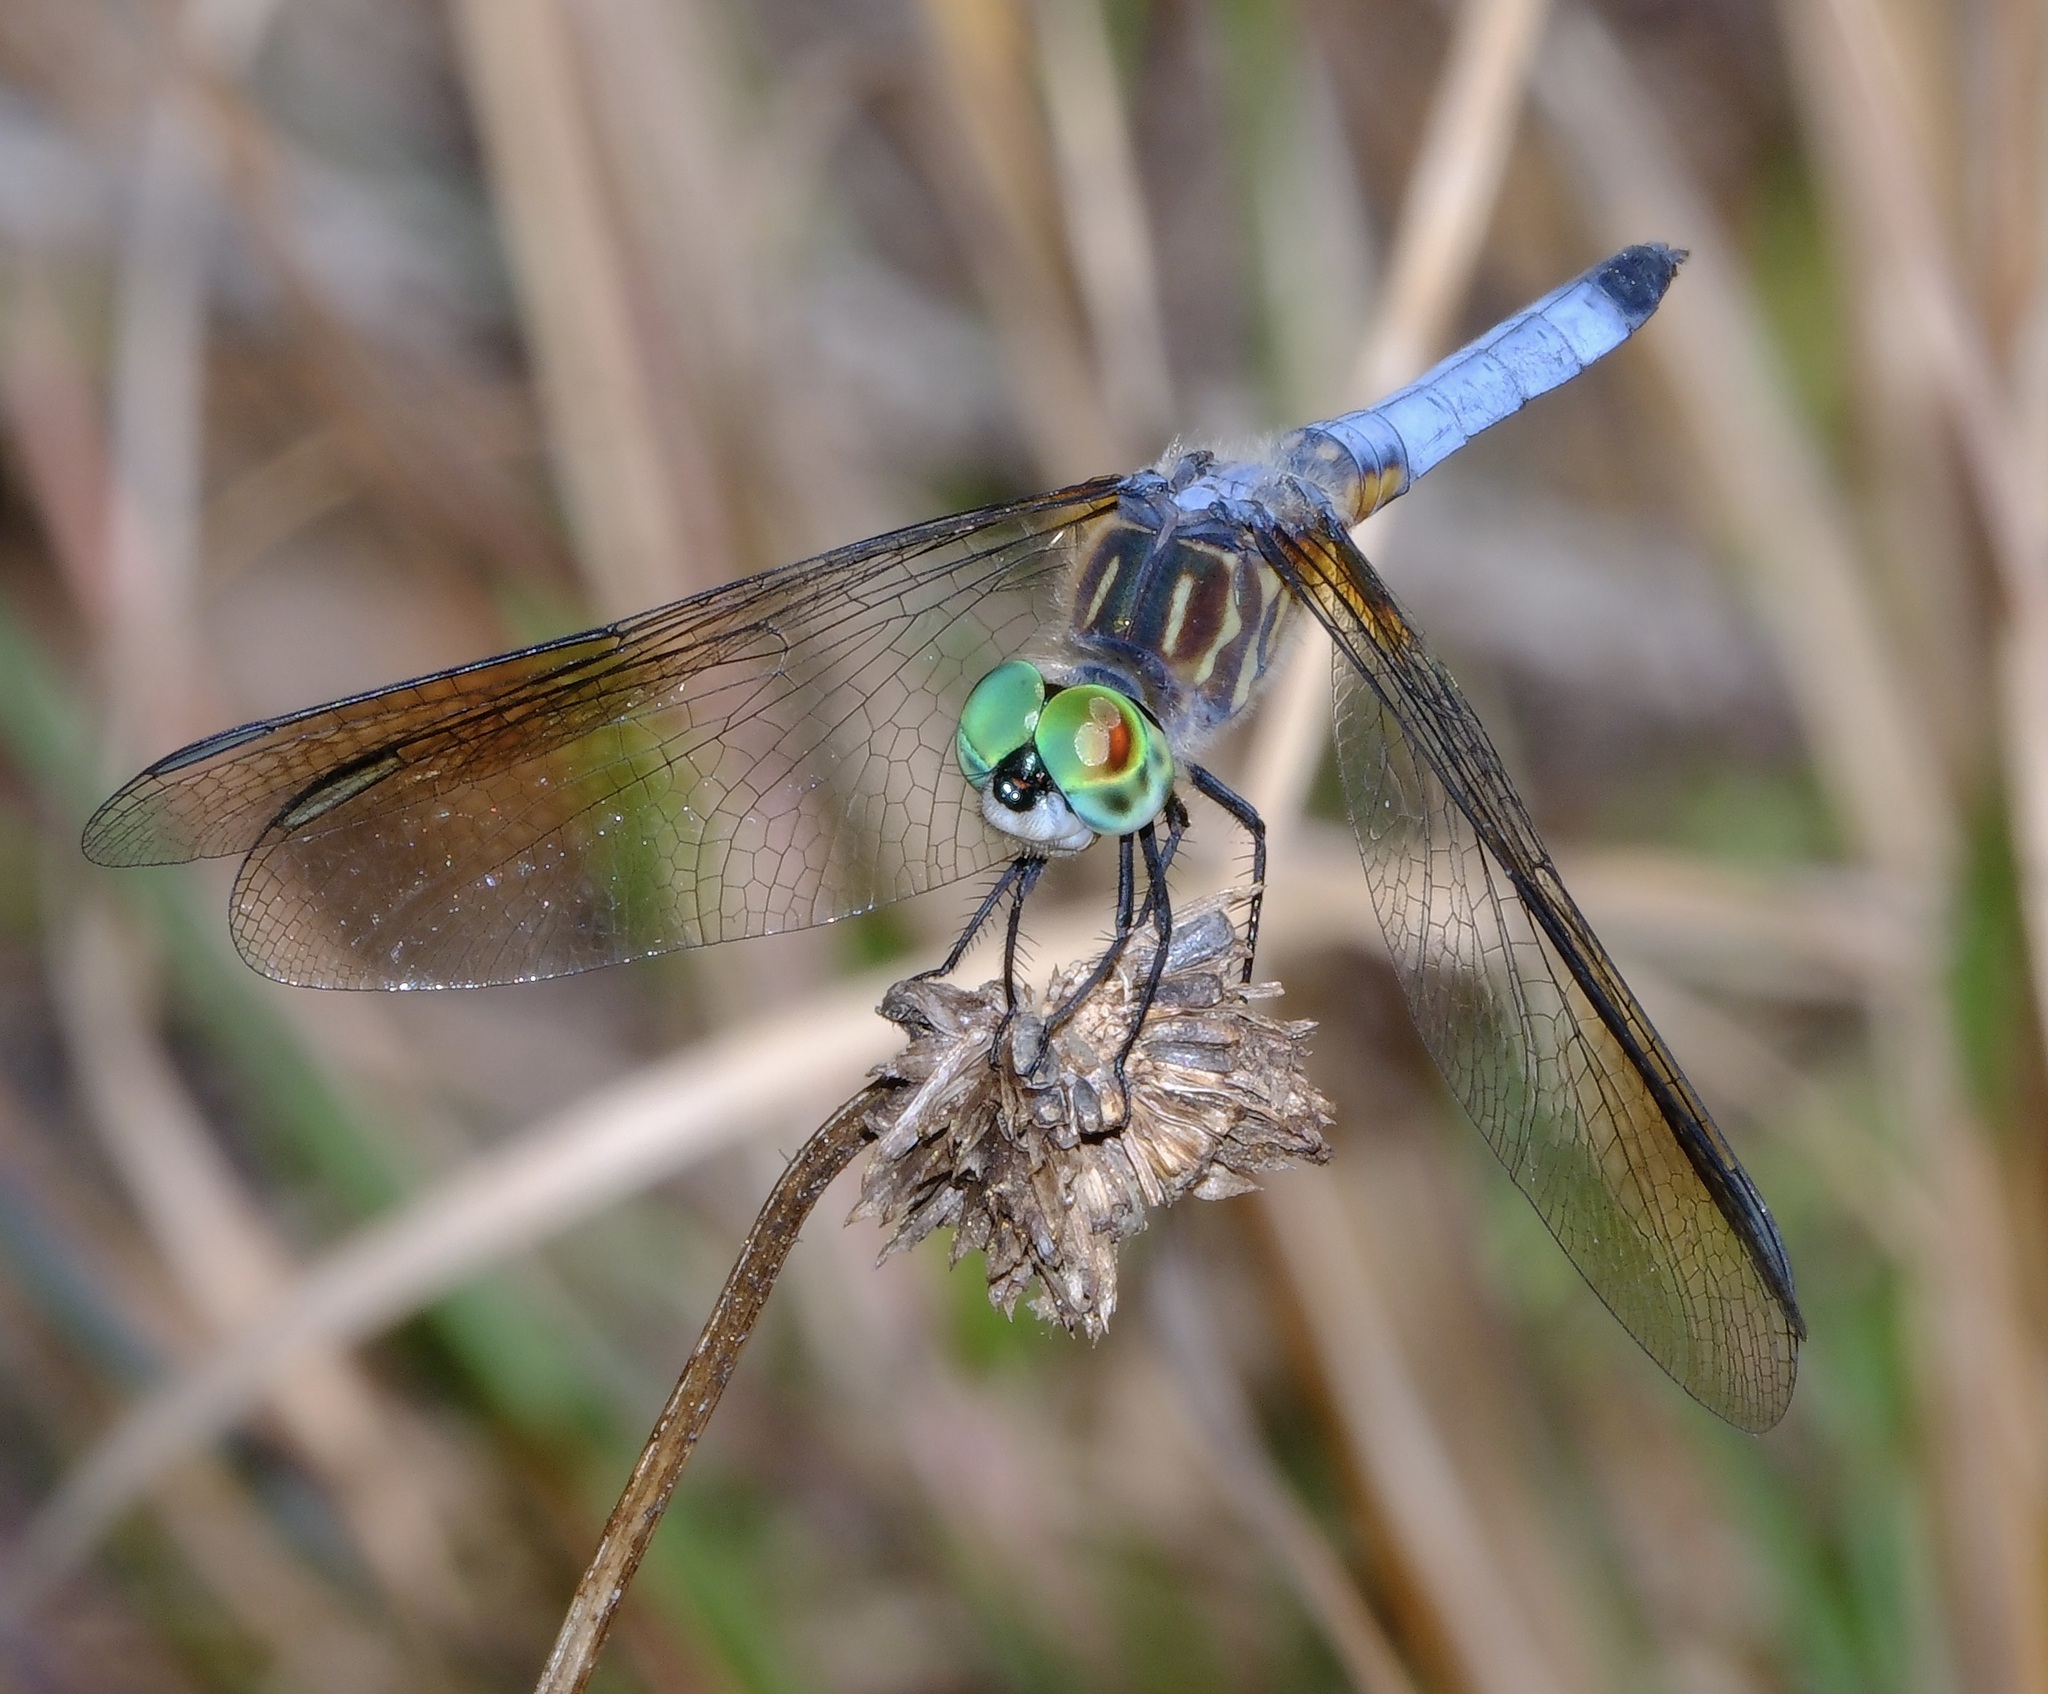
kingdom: Animalia
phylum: Arthropoda
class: Insecta
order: Odonata
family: Libellulidae
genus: Pachydiplax
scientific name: Pachydiplax longipennis
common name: Blue dasher
